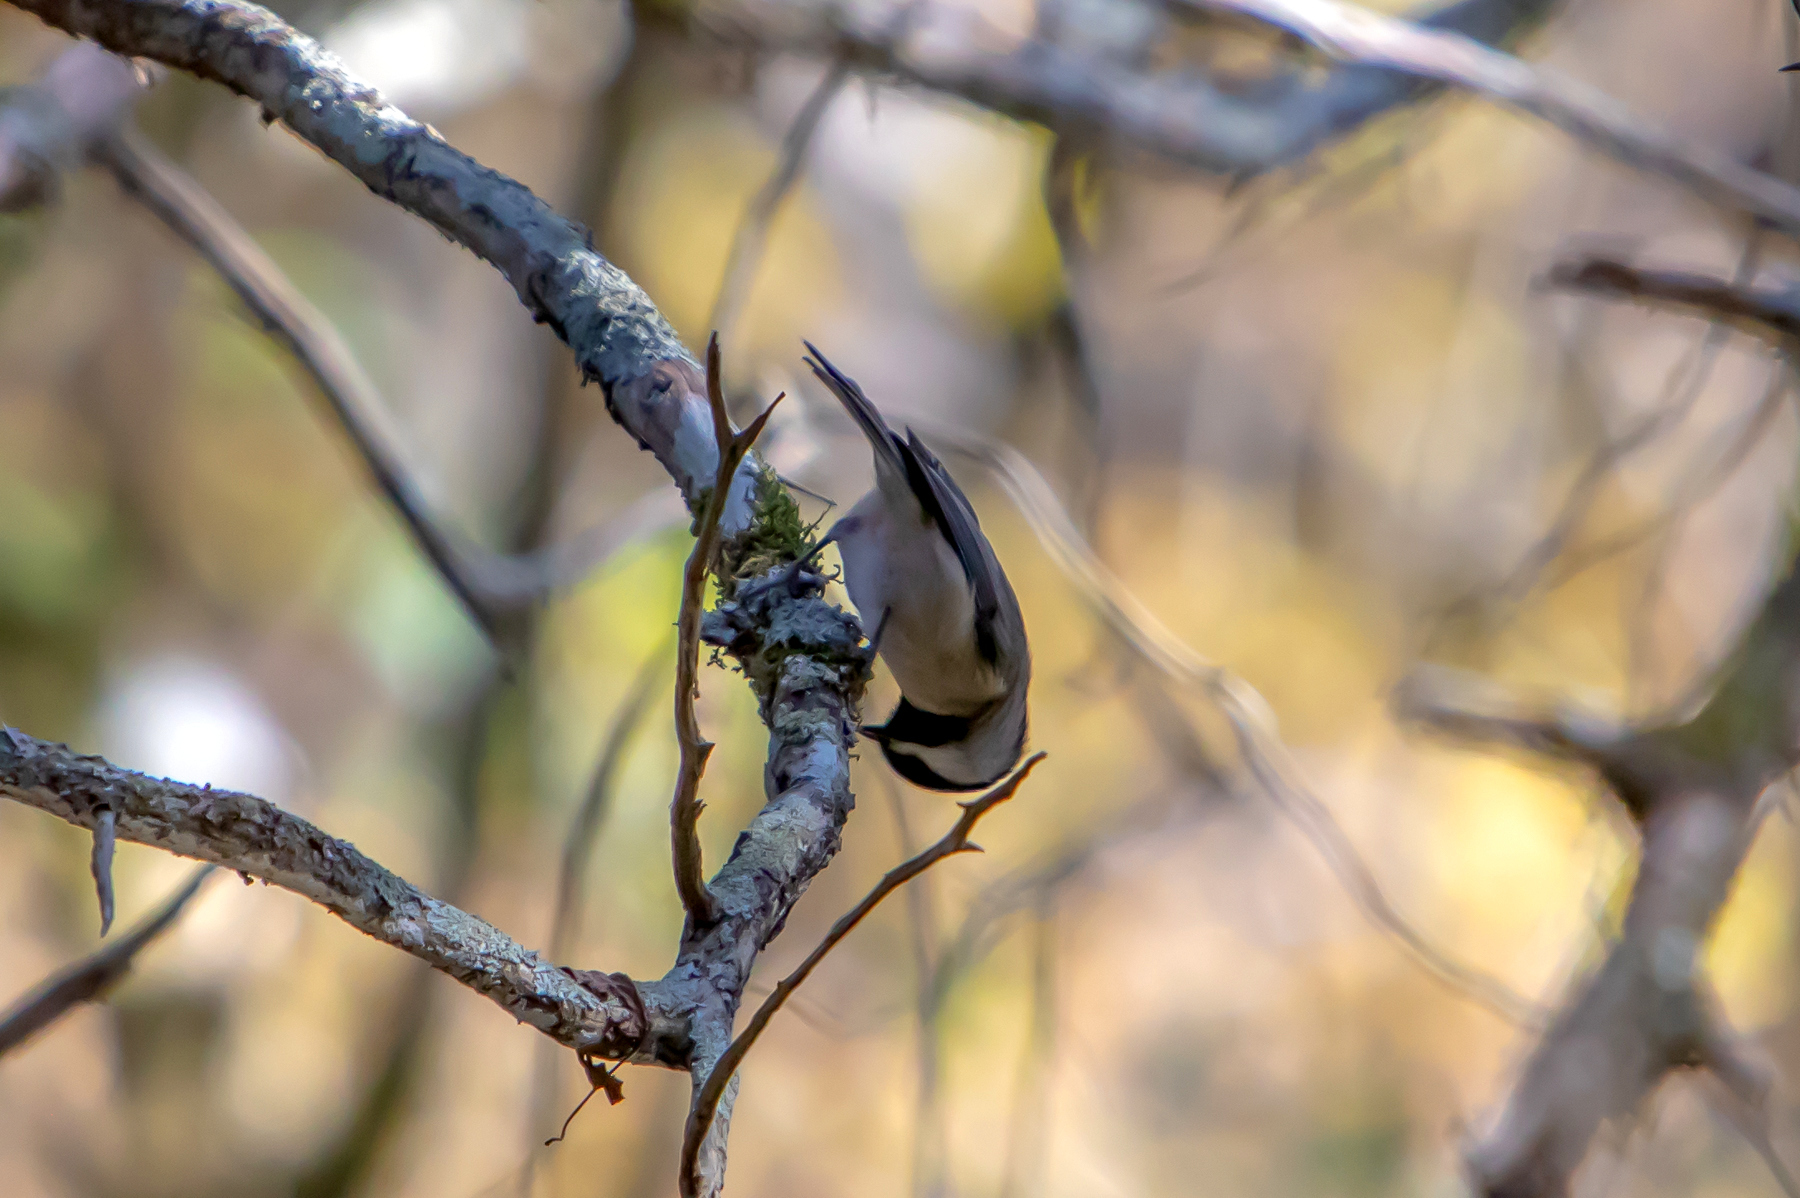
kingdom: Animalia
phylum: Chordata
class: Aves
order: Passeriformes
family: Paridae
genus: Poecile
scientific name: Poecile carolinensis
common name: Carolina chickadee
